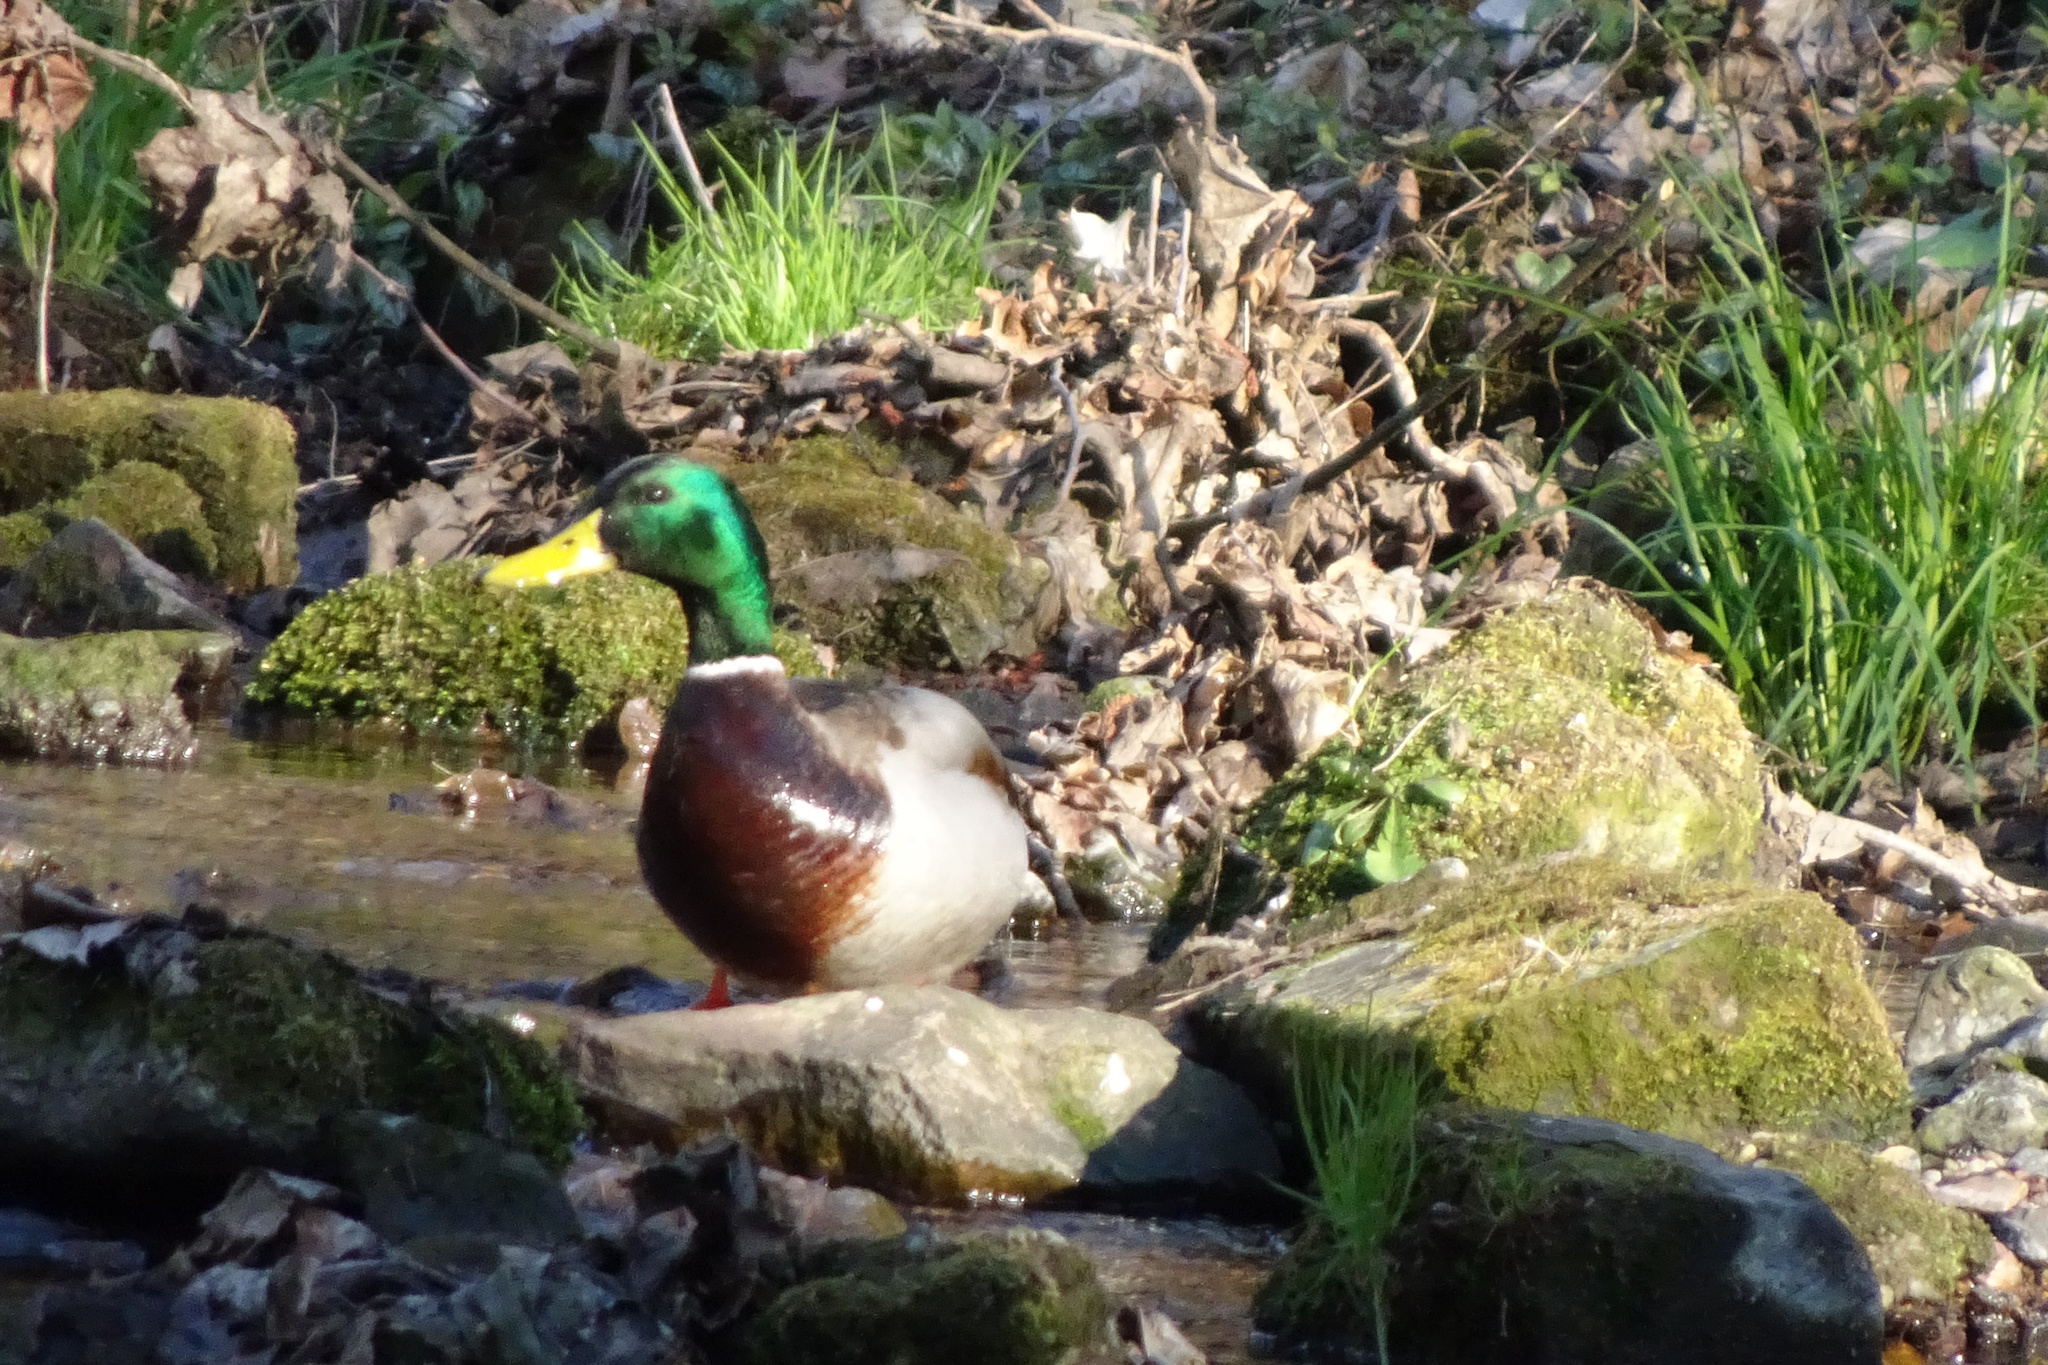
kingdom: Animalia
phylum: Chordata
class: Aves
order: Anseriformes
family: Anatidae
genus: Anas
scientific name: Anas platyrhynchos
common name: Mallard
